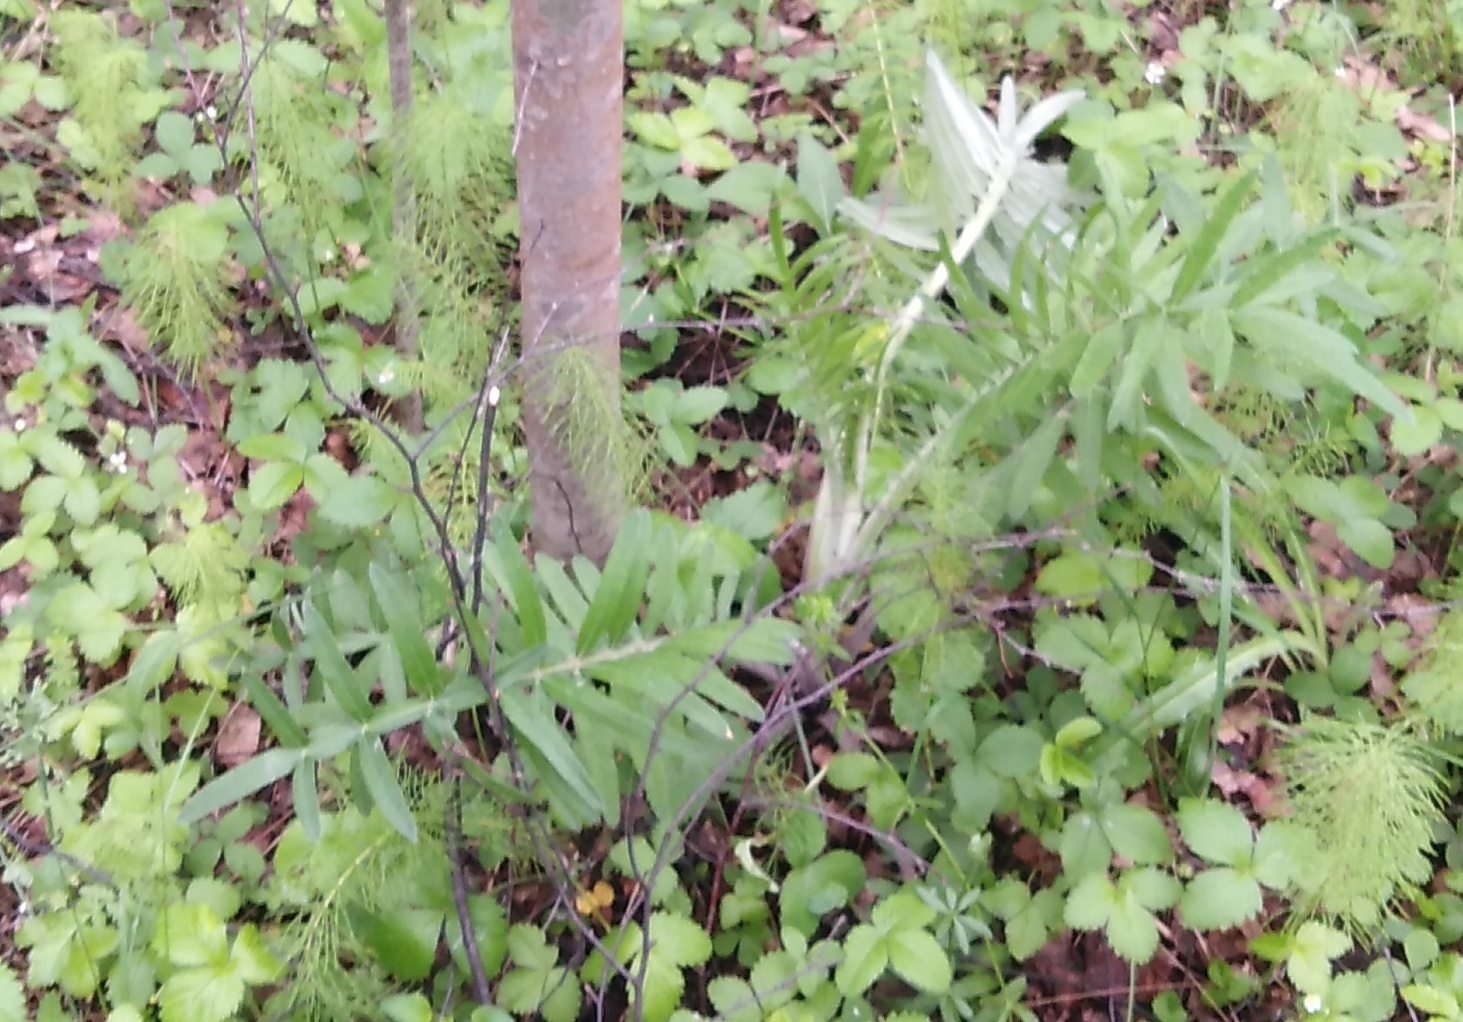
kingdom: Plantae
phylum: Tracheophyta
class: Magnoliopsida
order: Asterales
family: Asteraceae
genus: Lophiolepis
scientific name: Lophiolepis decussata
